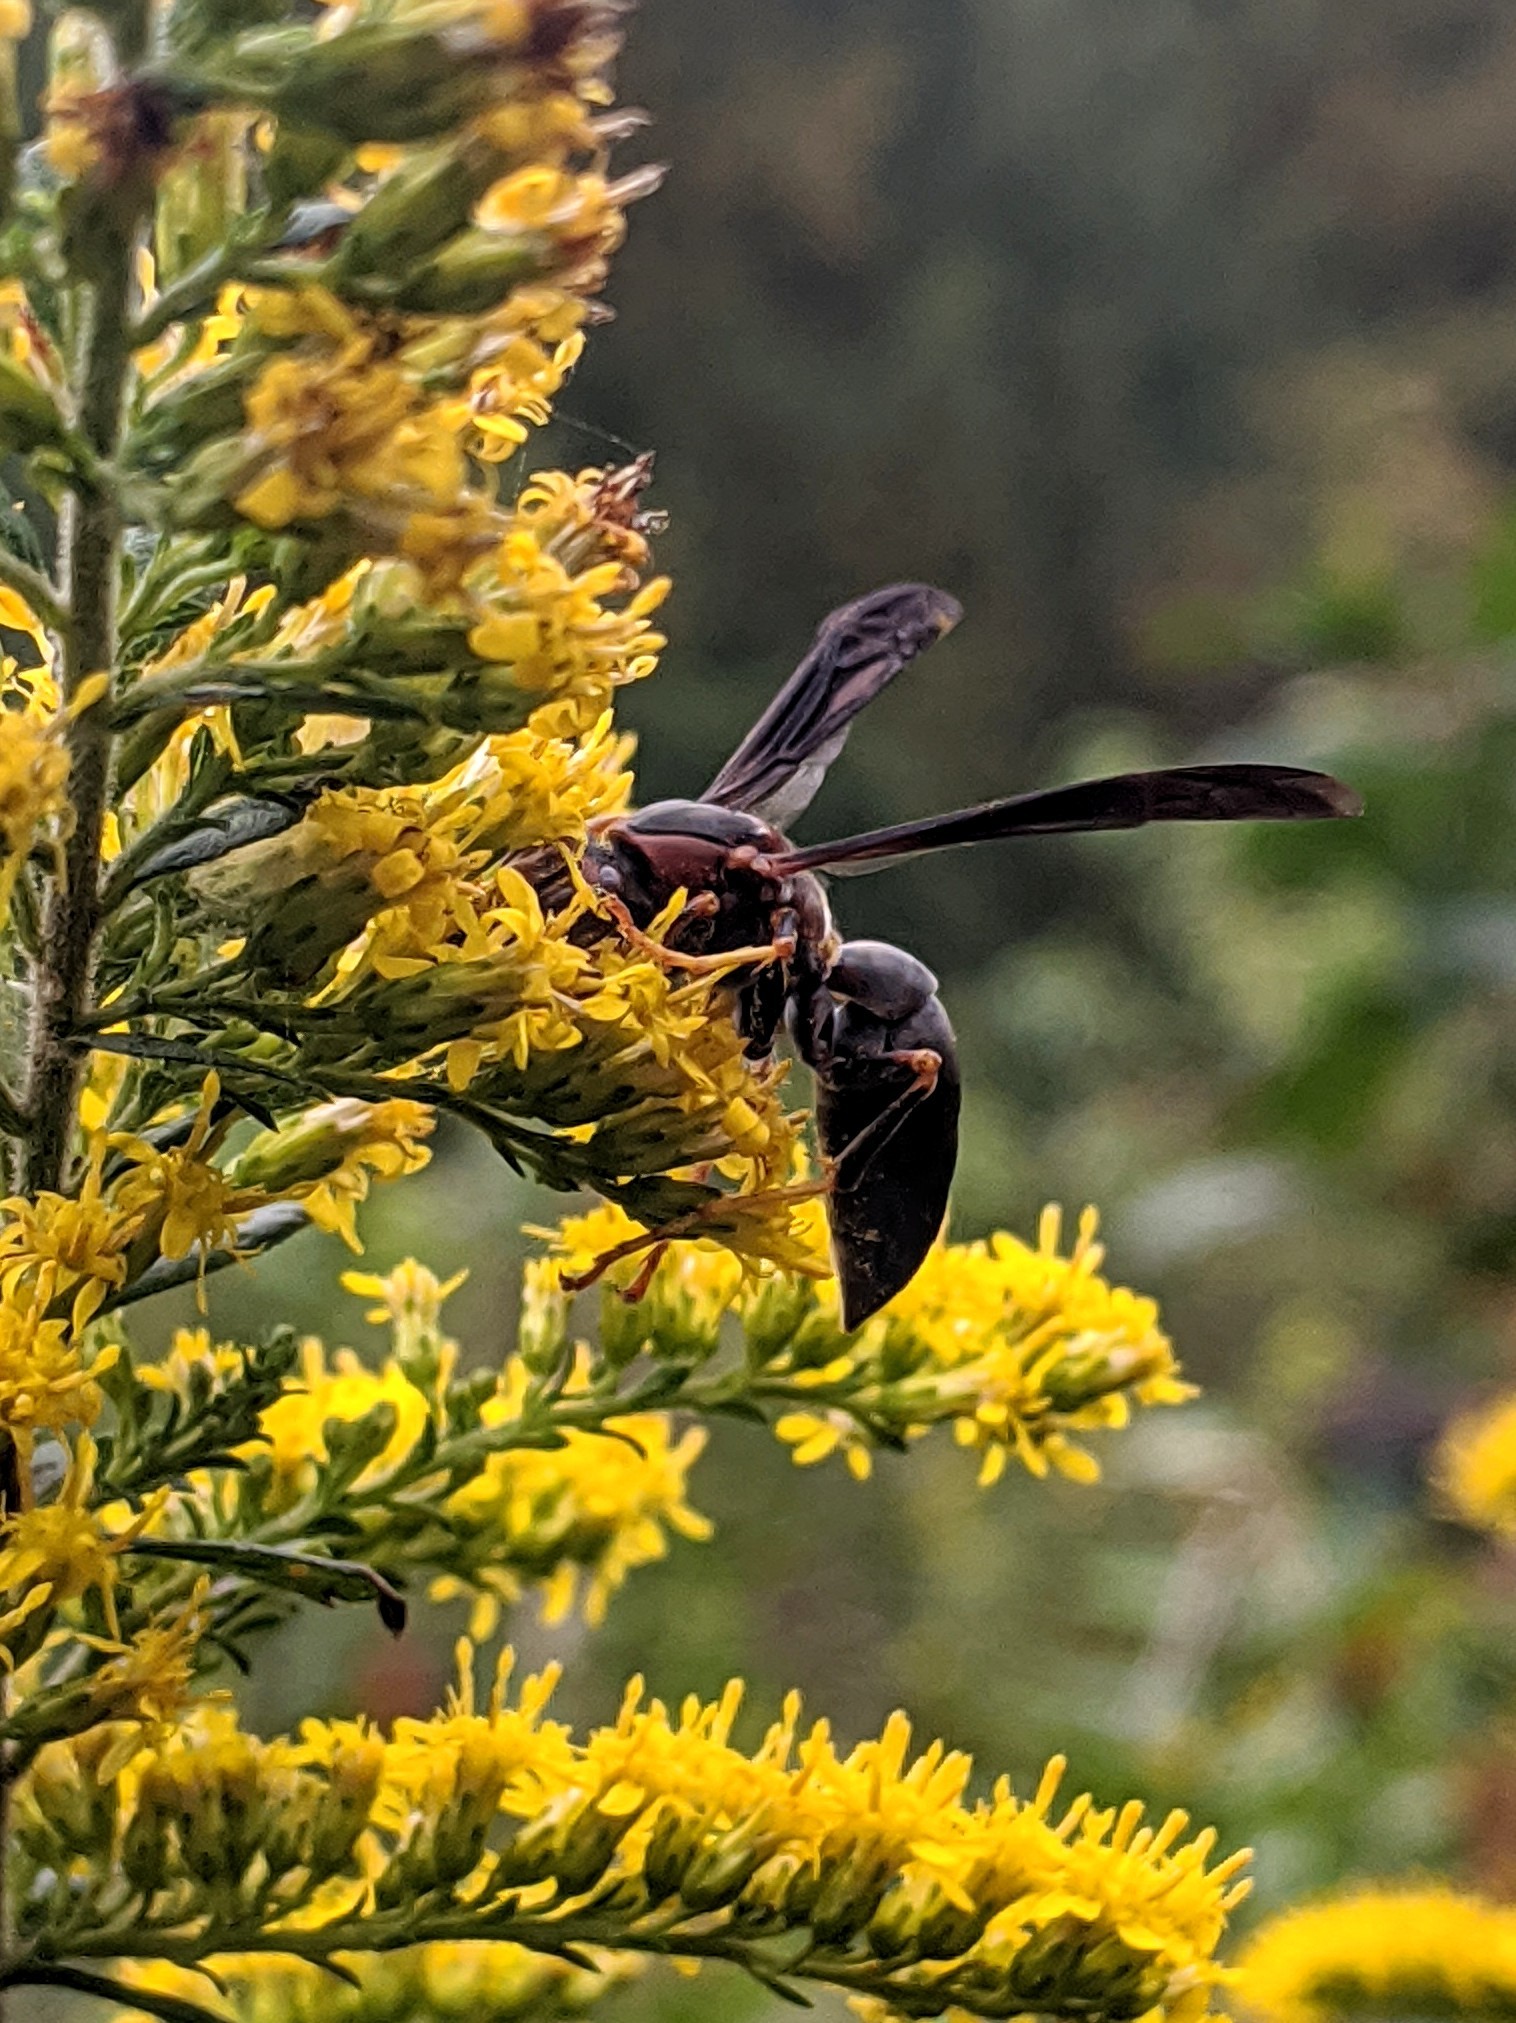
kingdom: Animalia
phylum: Arthropoda
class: Insecta
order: Hymenoptera
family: Eumenidae
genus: Polistes
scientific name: Polistes metricus
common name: Metric paper wasp
